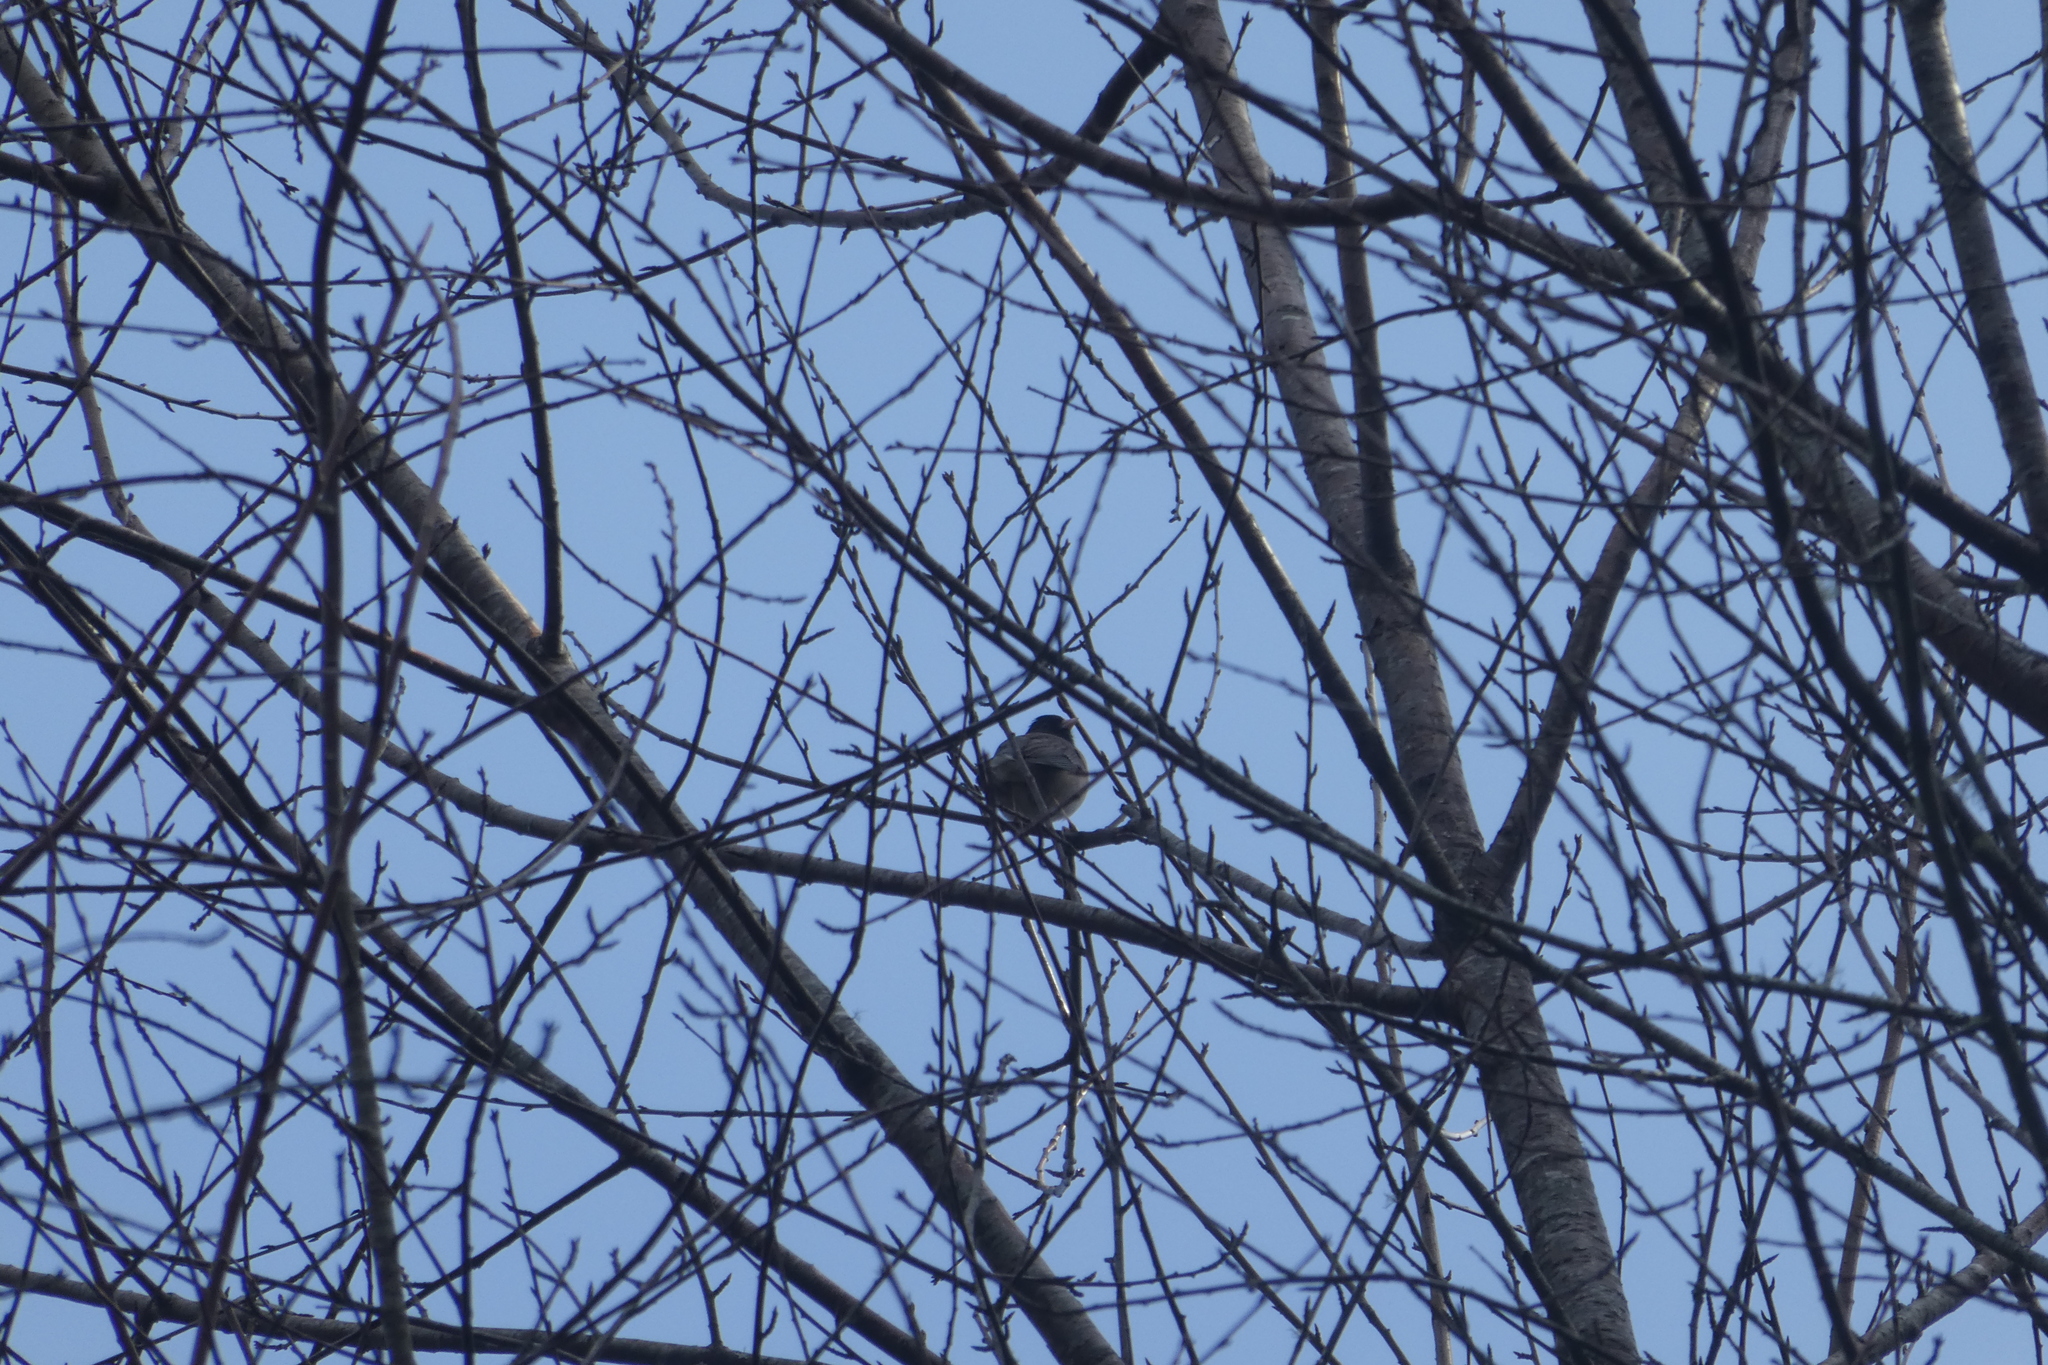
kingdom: Animalia
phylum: Chordata
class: Aves
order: Passeriformes
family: Passerellidae
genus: Junco
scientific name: Junco hyemalis
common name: Dark-eyed junco
